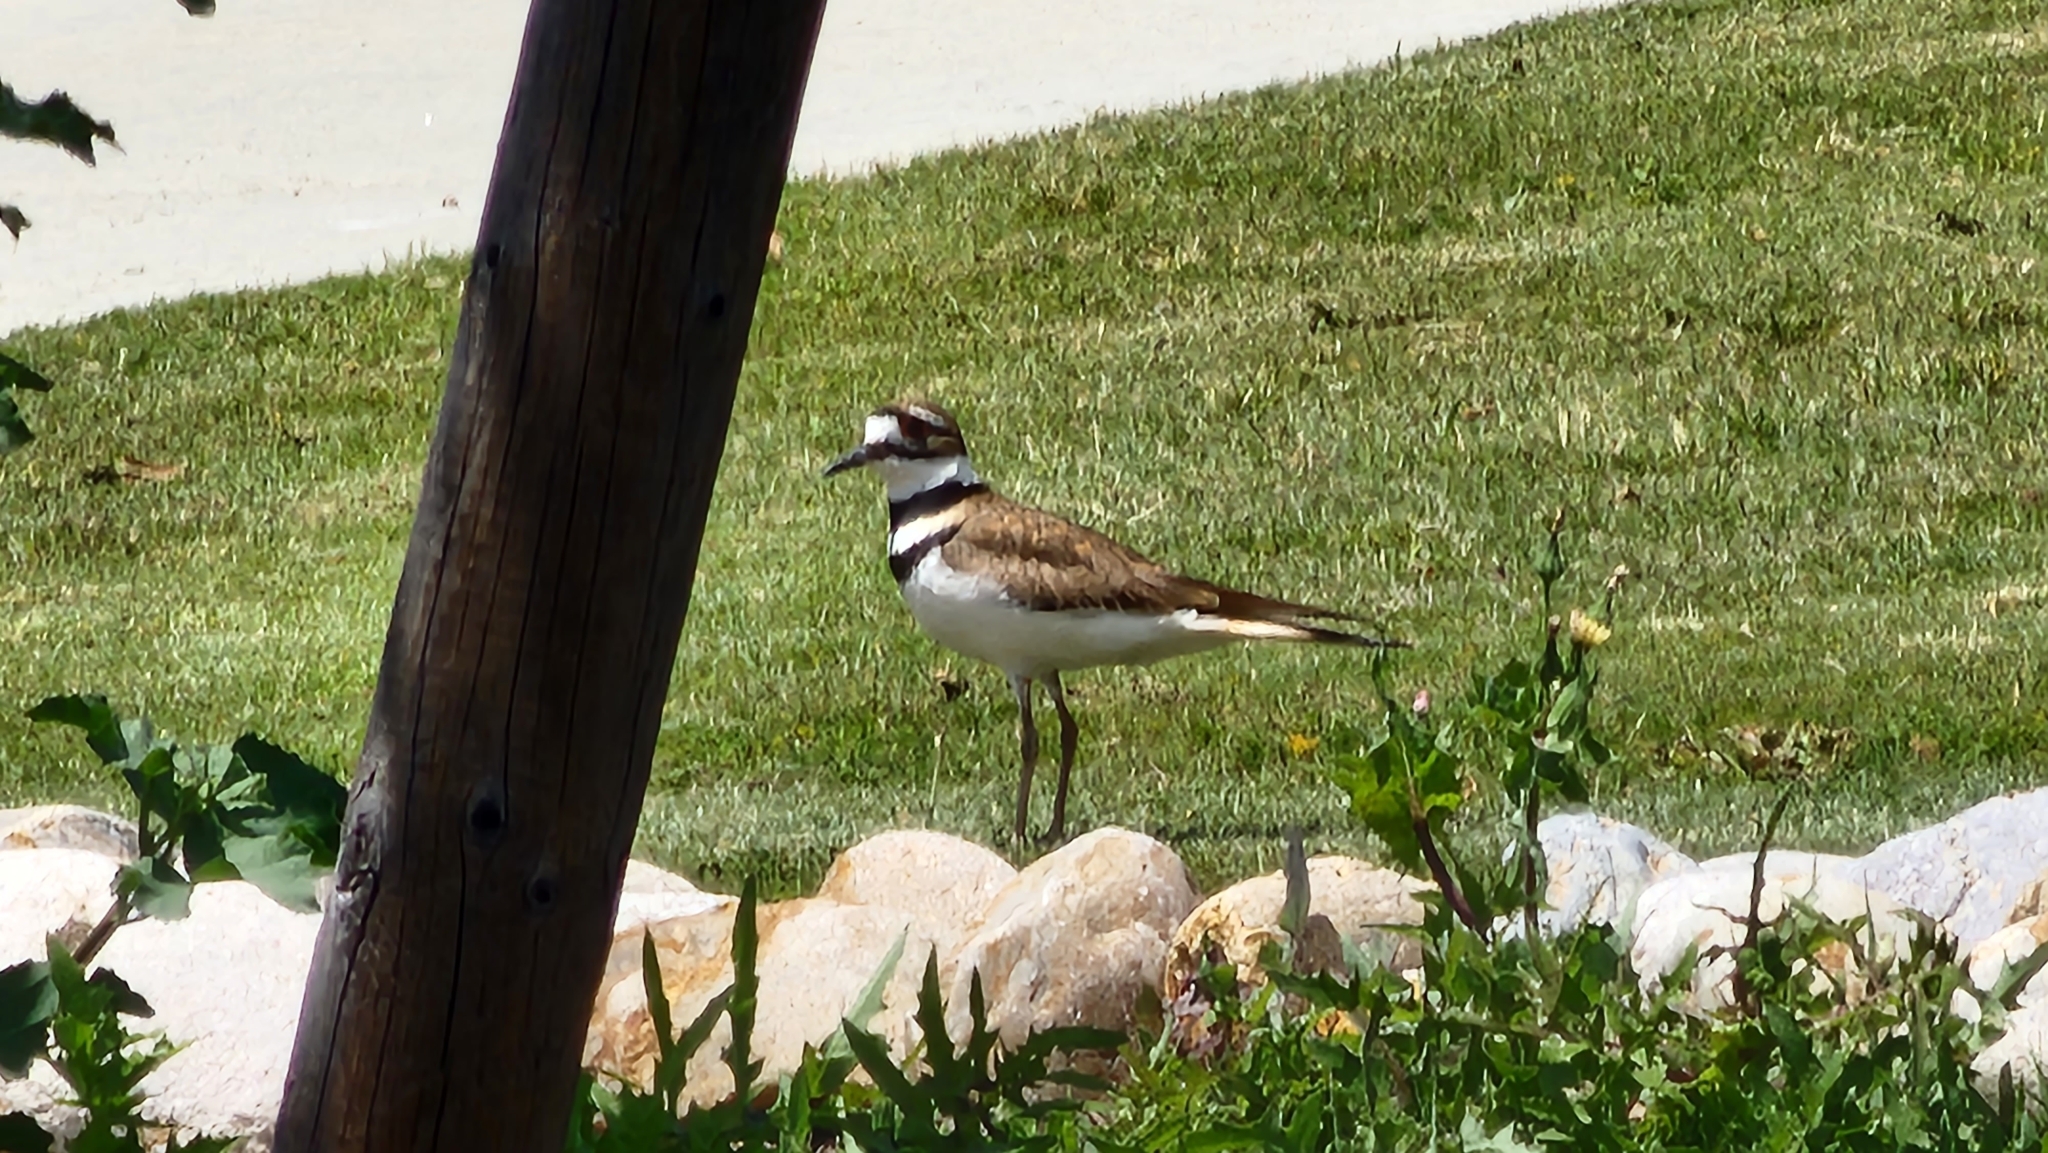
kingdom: Animalia
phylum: Chordata
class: Aves
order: Charadriiformes
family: Charadriidae
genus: Charadrius
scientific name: Charadrius vociferus
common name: Killdeer
